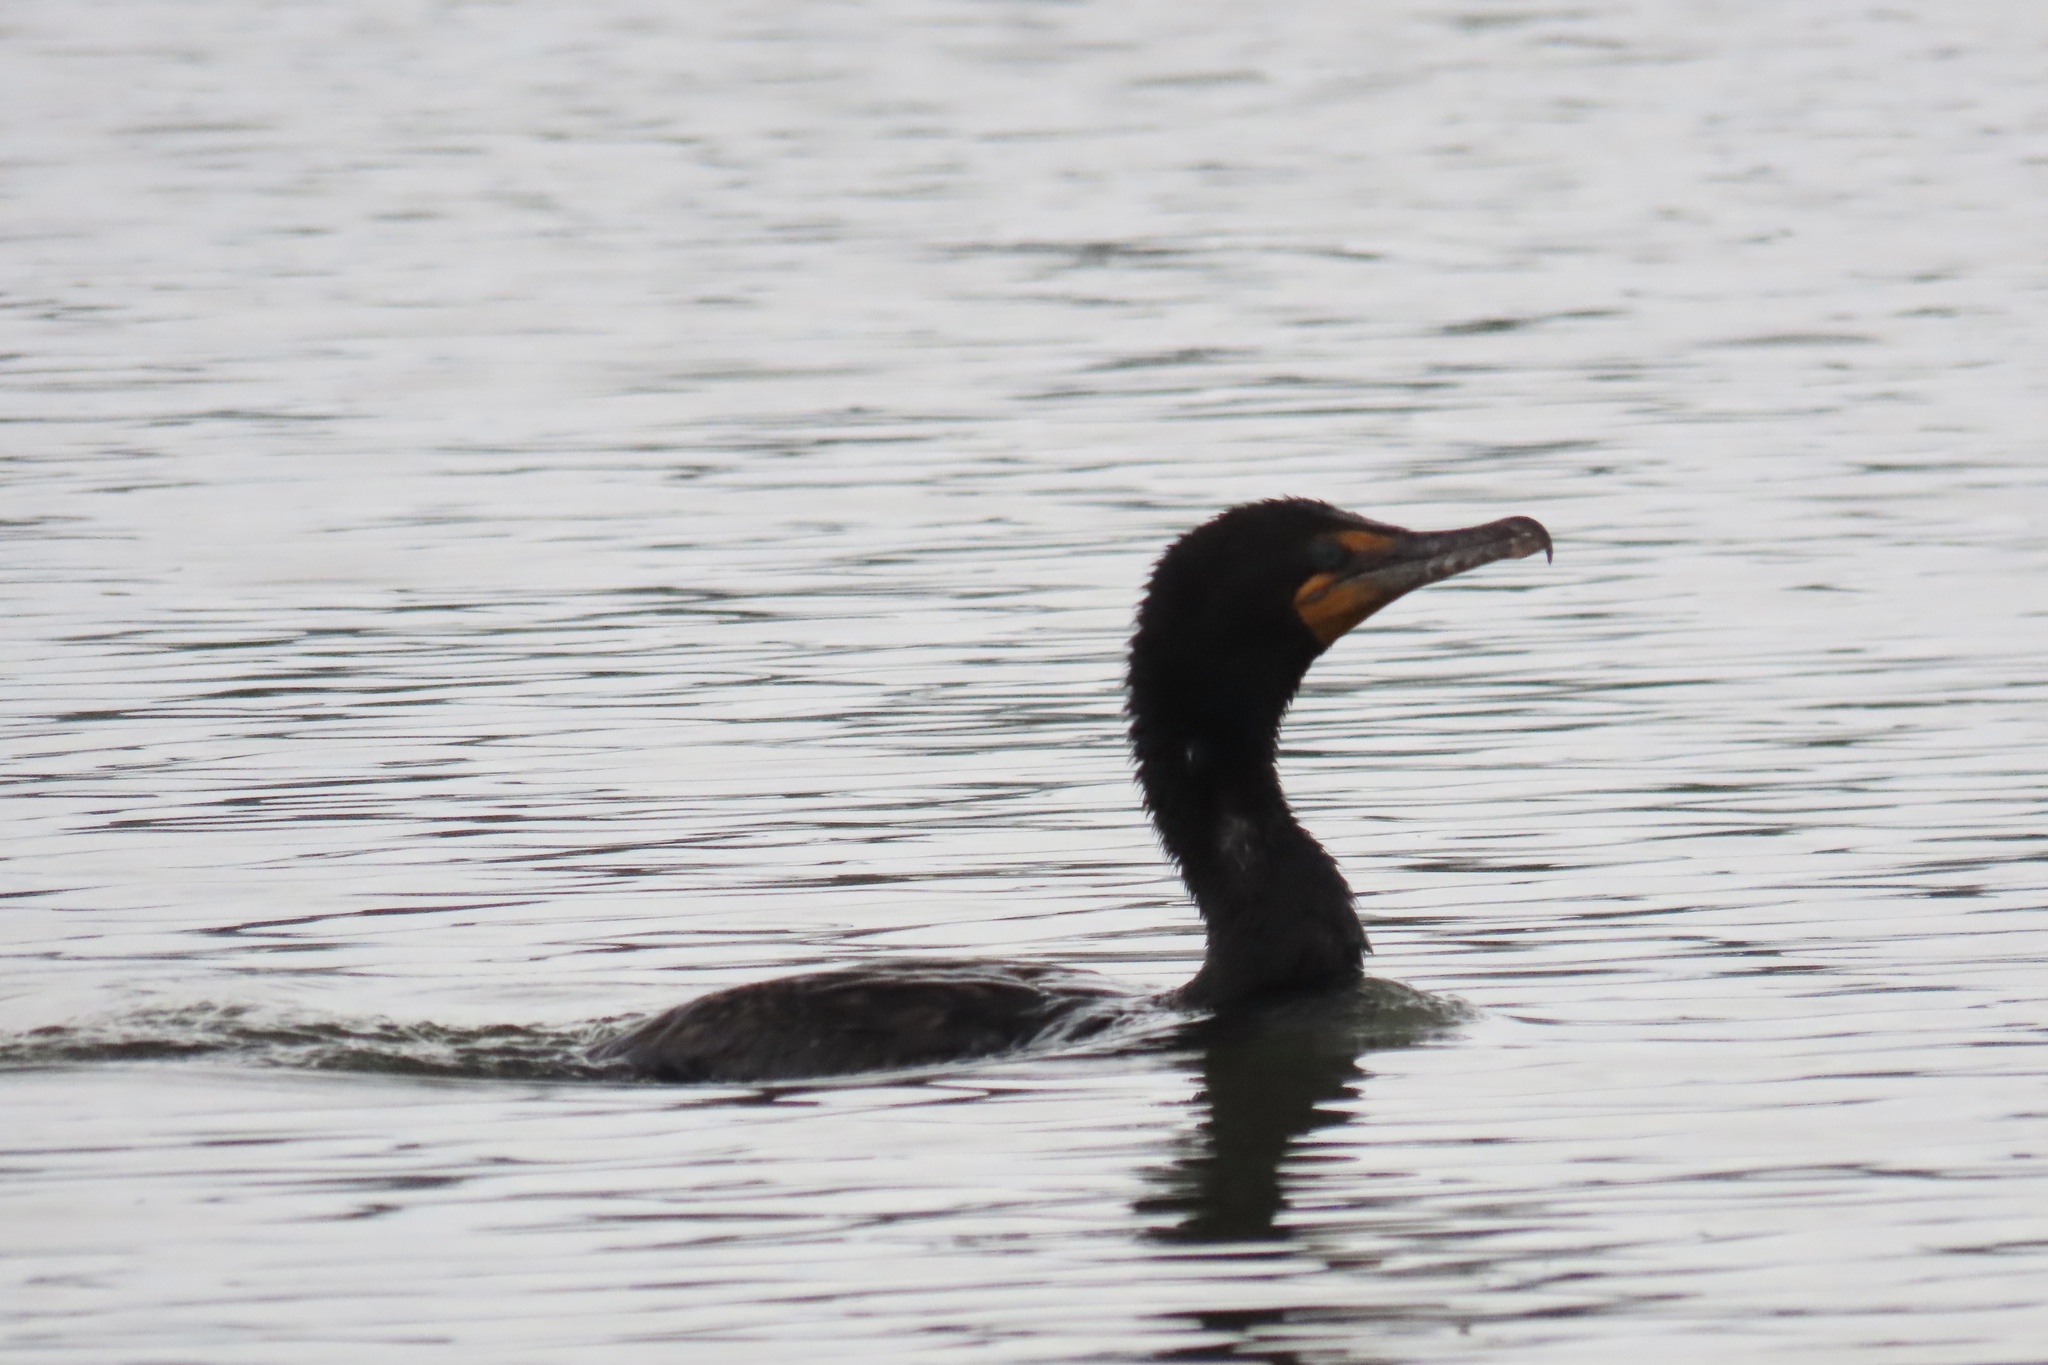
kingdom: Animalia
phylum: Chordata
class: Aves
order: Suliformes
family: Phalacrocoracidae
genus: Phalacrocorax
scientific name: Phalacrocorax auritus
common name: Double-crested cormorant
